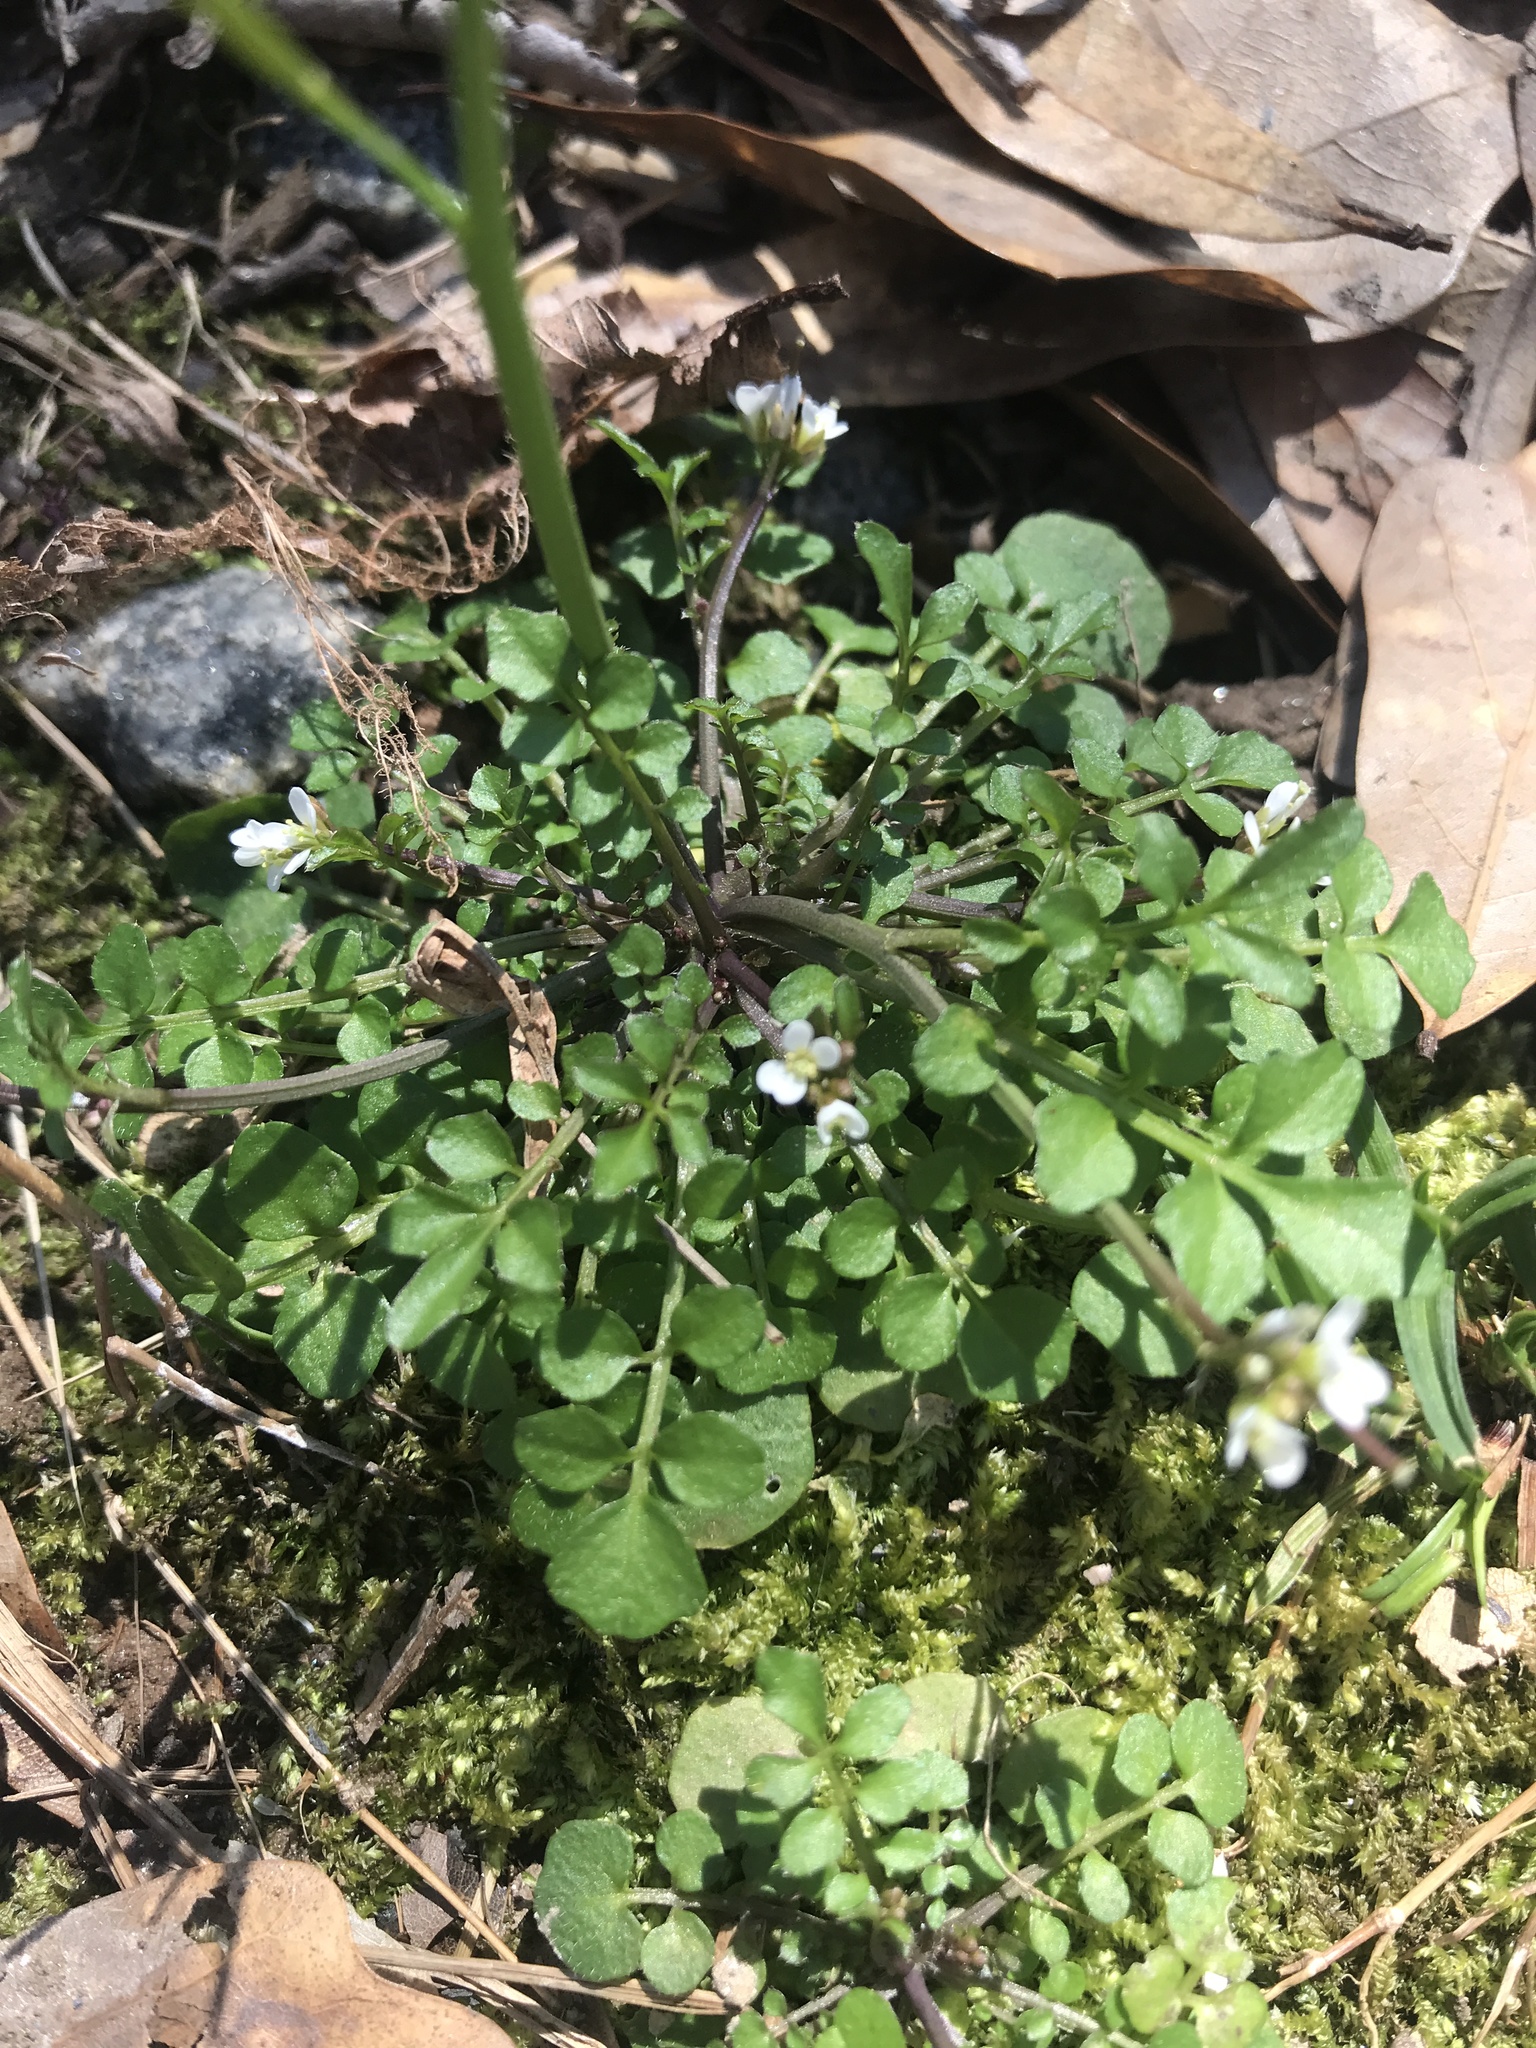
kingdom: Plantae
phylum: Tracheophyta
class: Magnoliopsida
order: Brassicales
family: Brassicaceae
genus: Cardamine
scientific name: Cardamine hirsuta
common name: Hairy bittercress
